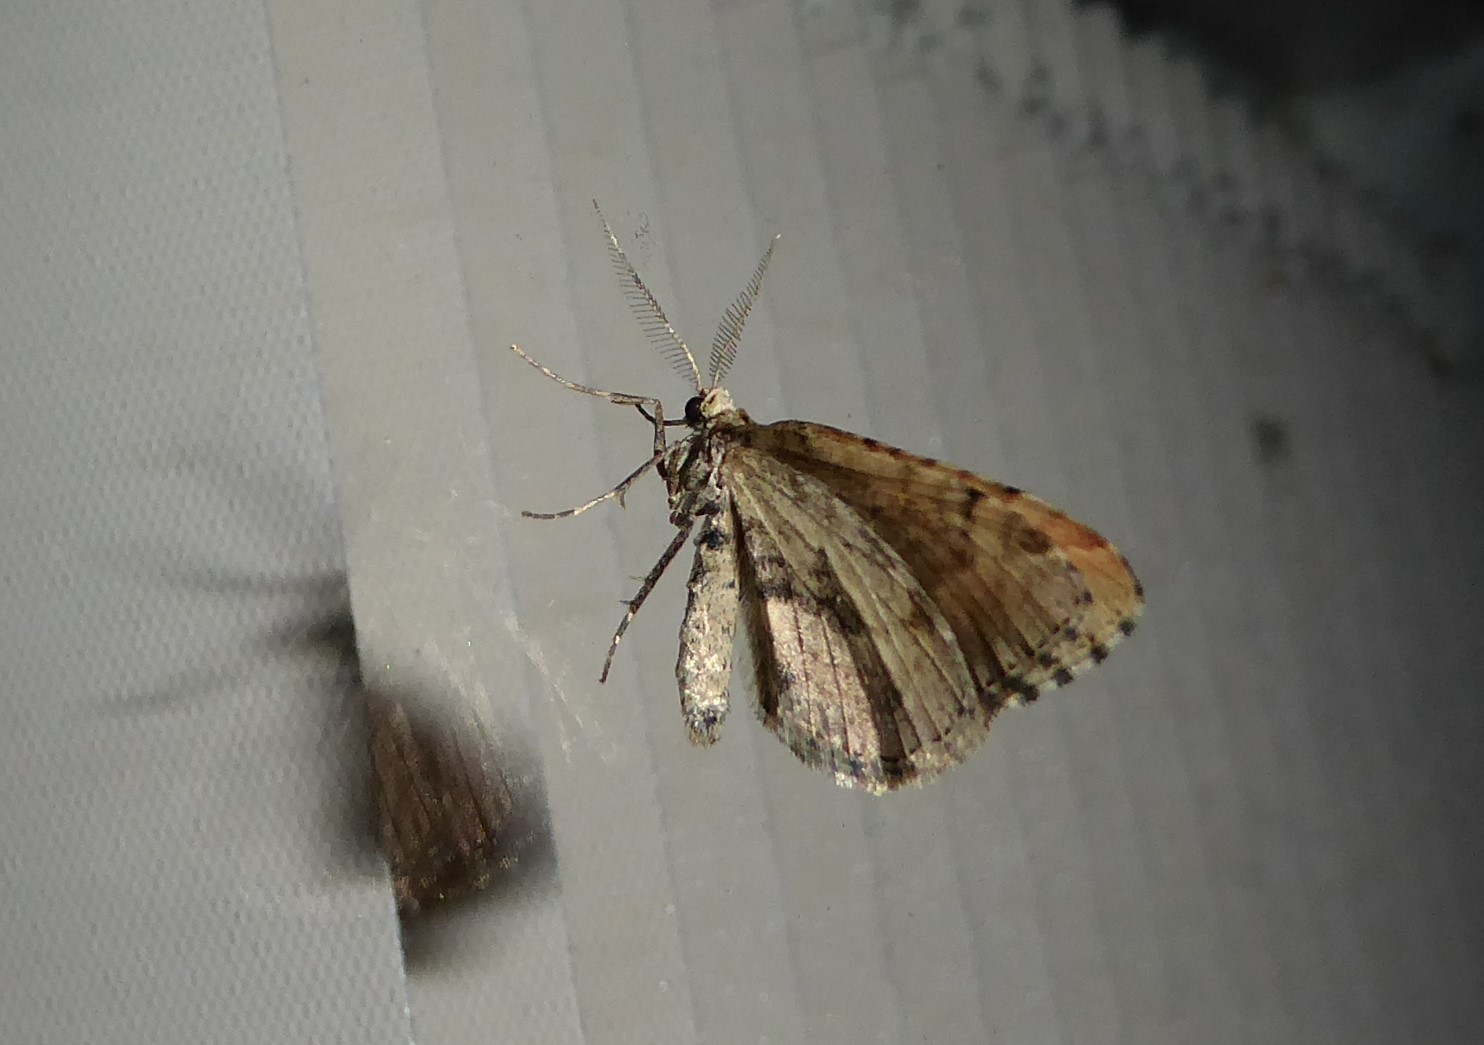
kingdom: Animalia
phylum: Arthropoda
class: Insecta
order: Lepidoptera
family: Geometridae
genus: Asaphodes
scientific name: Asaphodes aegrota
